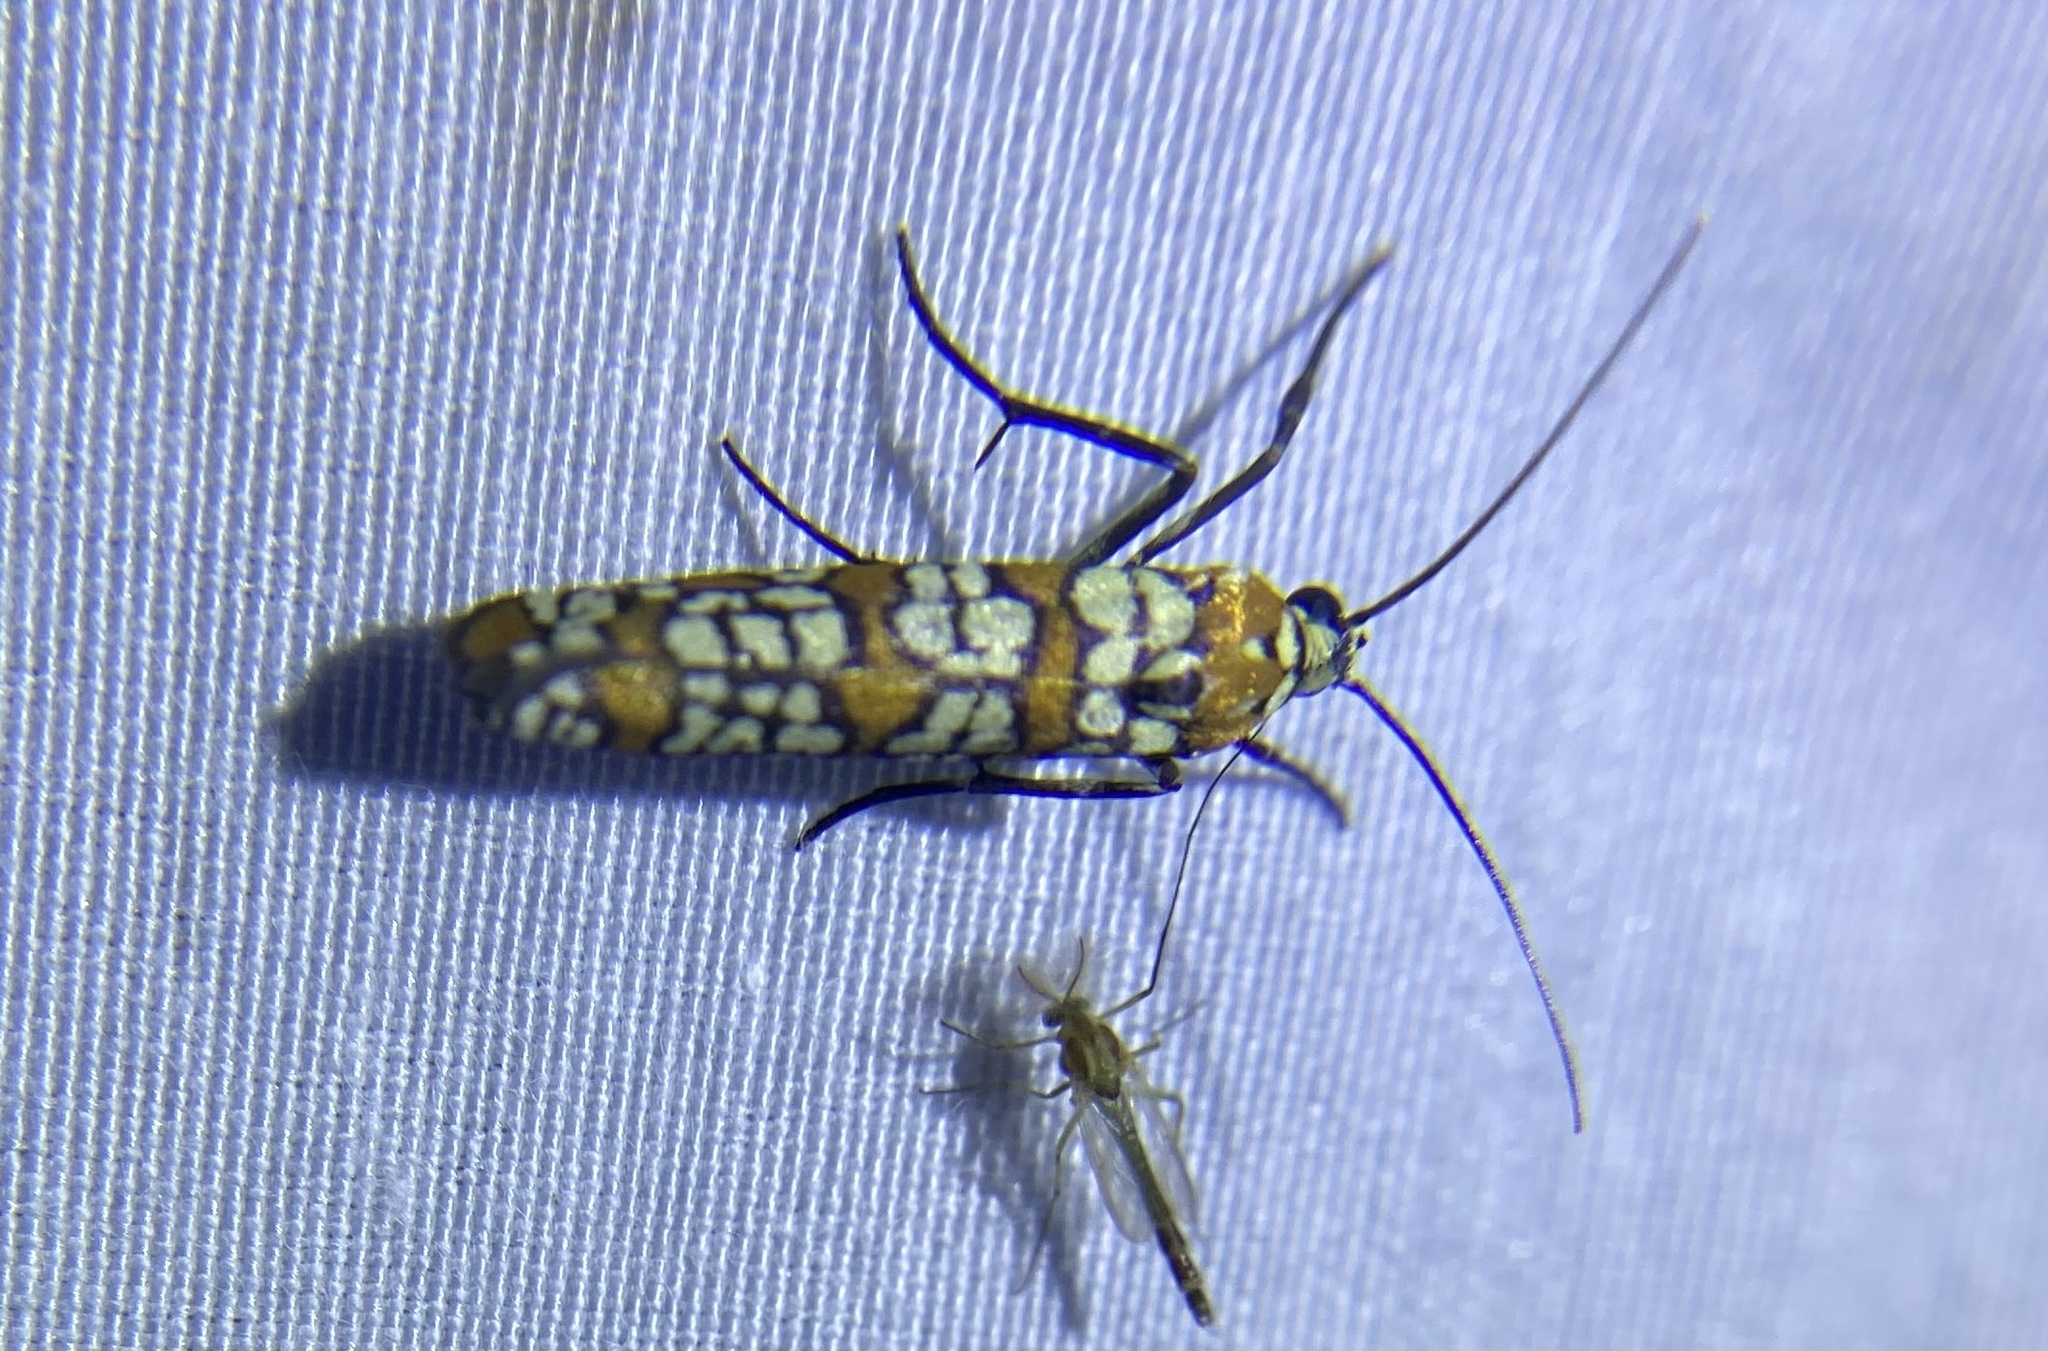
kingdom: Animalia
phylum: Arthropoda
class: Insecta
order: Lepidoptera
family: Attevidae
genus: Atteva
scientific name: Atteva punctella
